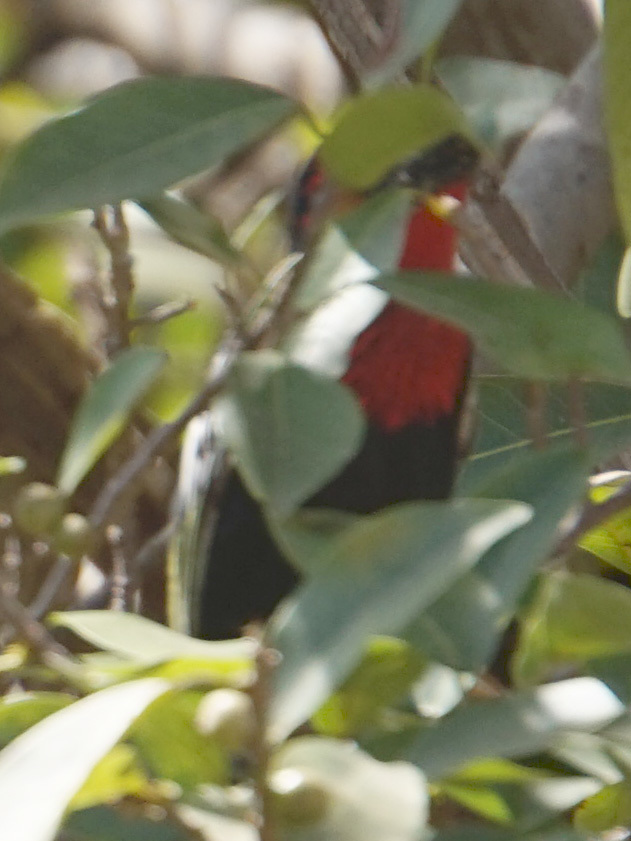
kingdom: Animalia
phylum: Chordata
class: Aves
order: Piciformes
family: Lybiidae
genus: Lybius
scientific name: Lybius guifsobalito
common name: Black-billed barbet
